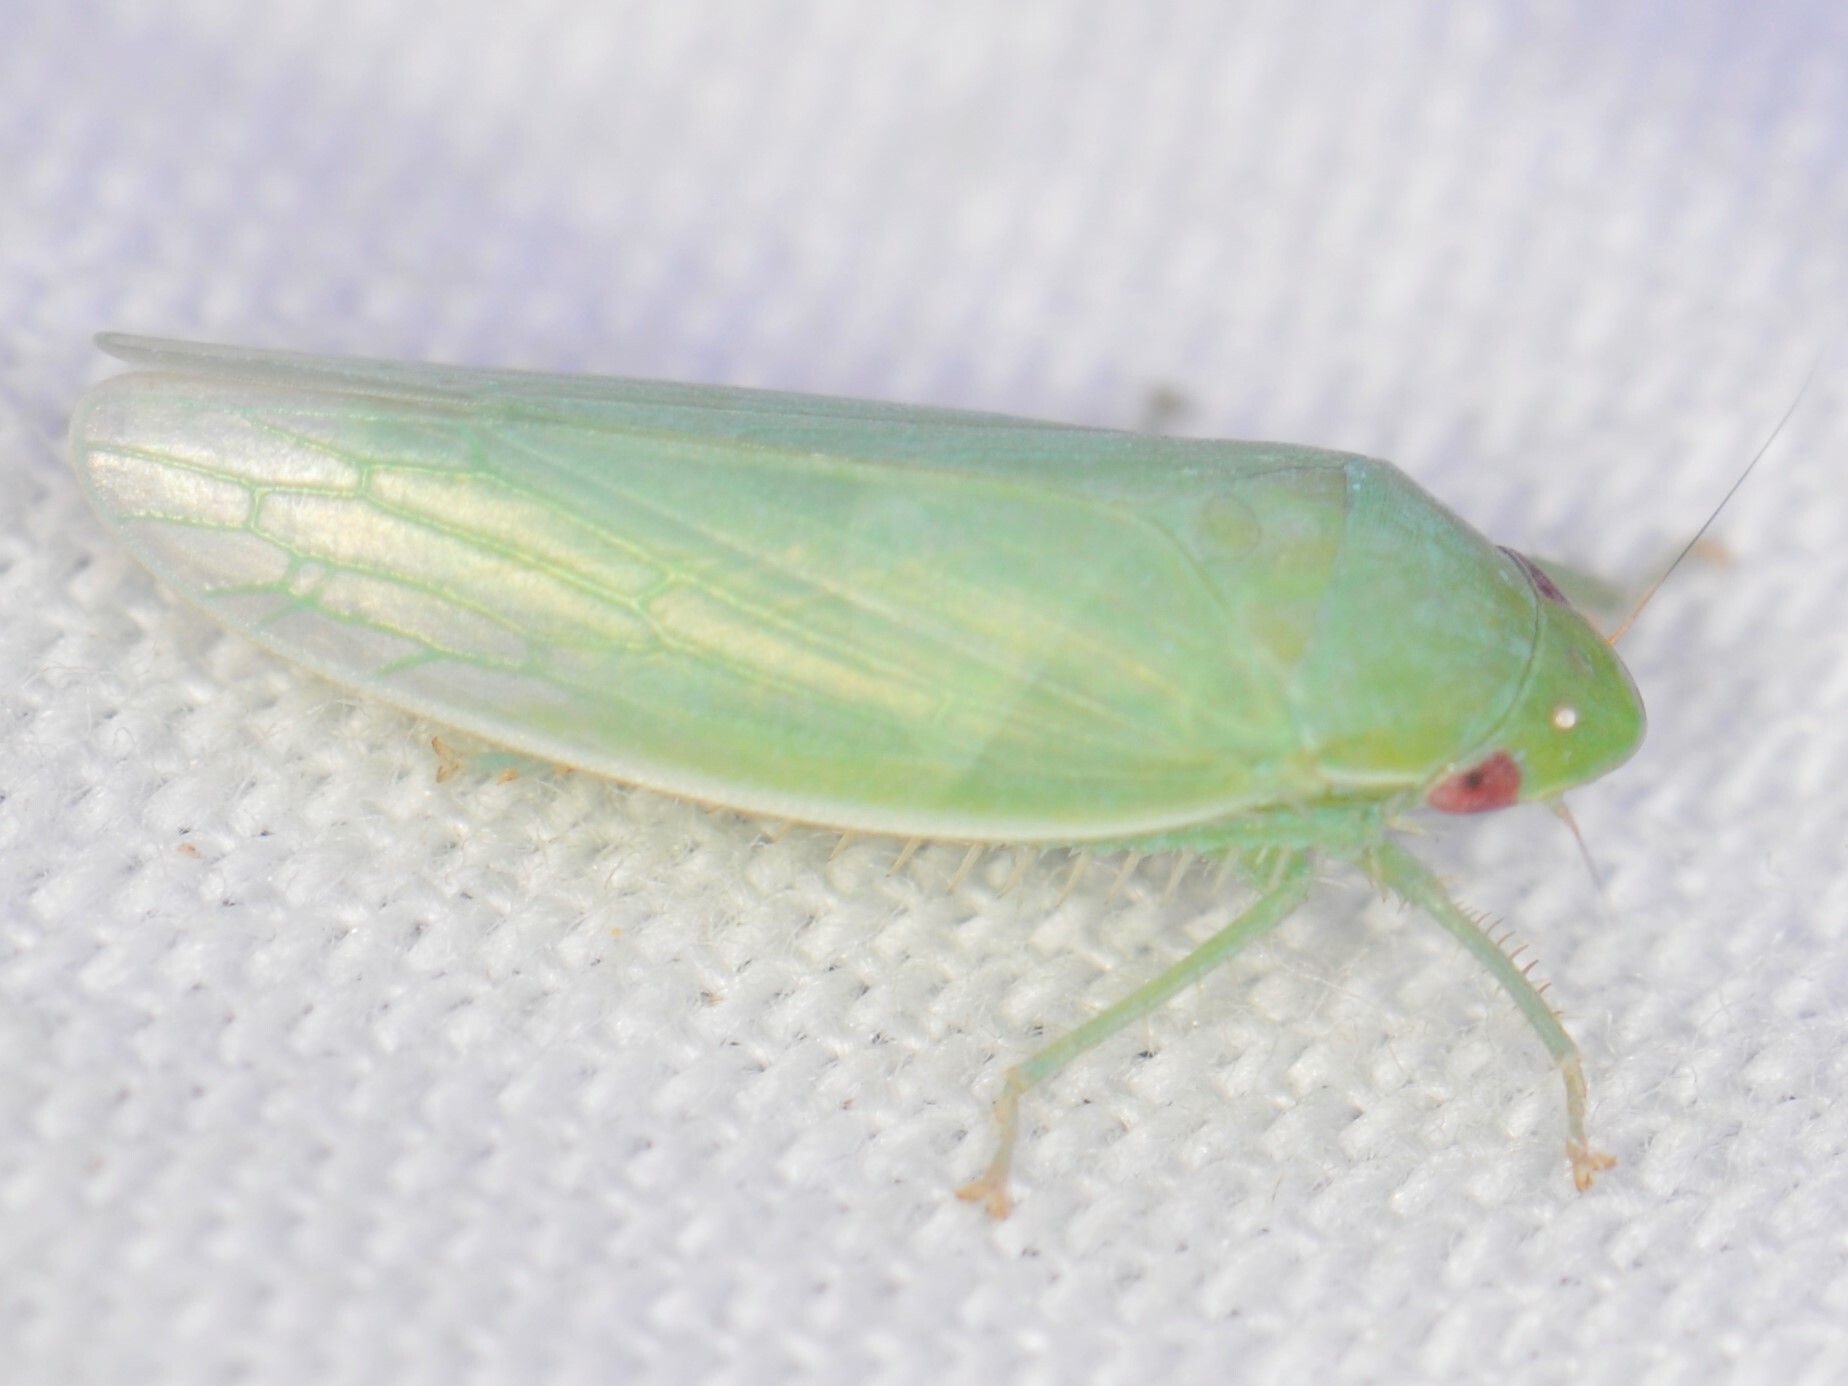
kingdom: Animalia
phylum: Arthropoda
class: Insecta
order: Hemiptera
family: Cicadellidae
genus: Gyponana
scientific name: Gyponana
